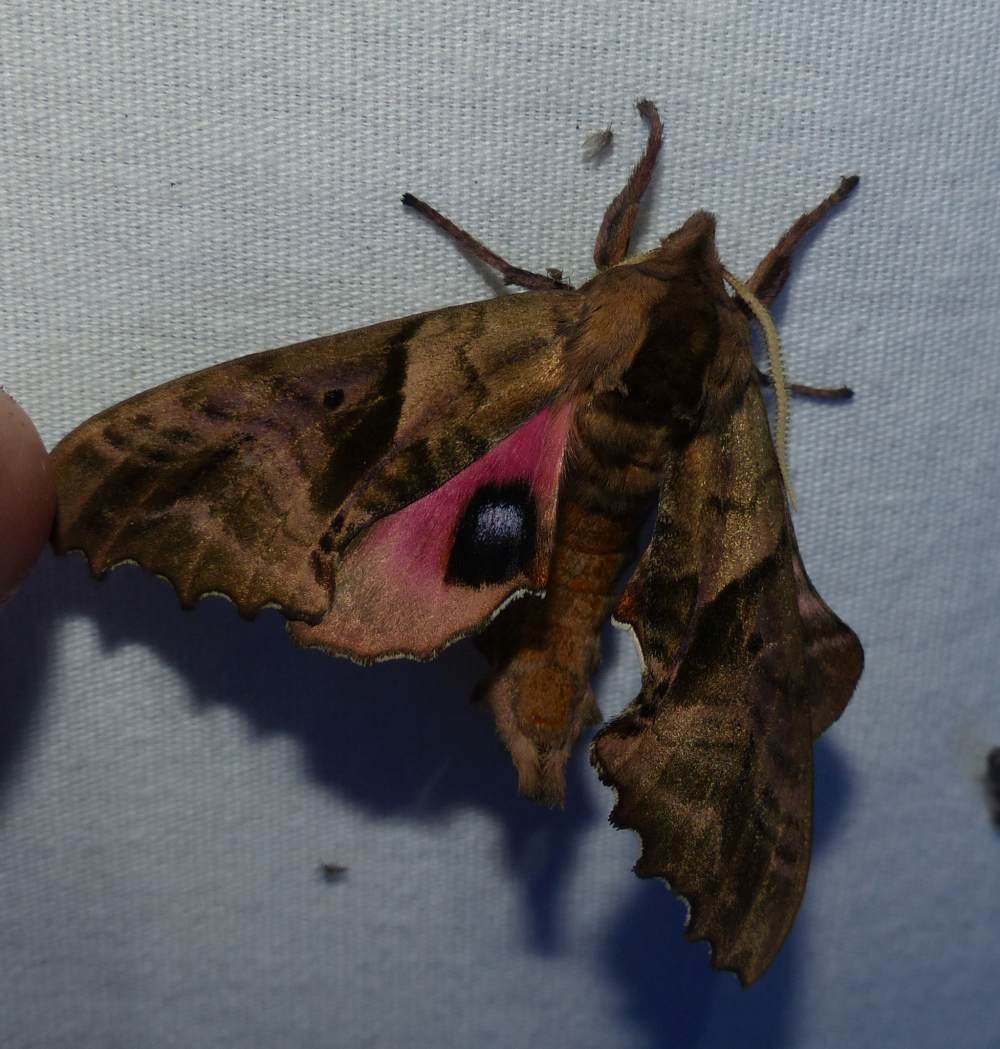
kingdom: Animalia
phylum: Arthropoda
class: Insecta
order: Lepidoptera
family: Sphingidae
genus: Paonias
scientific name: Paonias excaecata
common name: Blind-eyed sphinx
